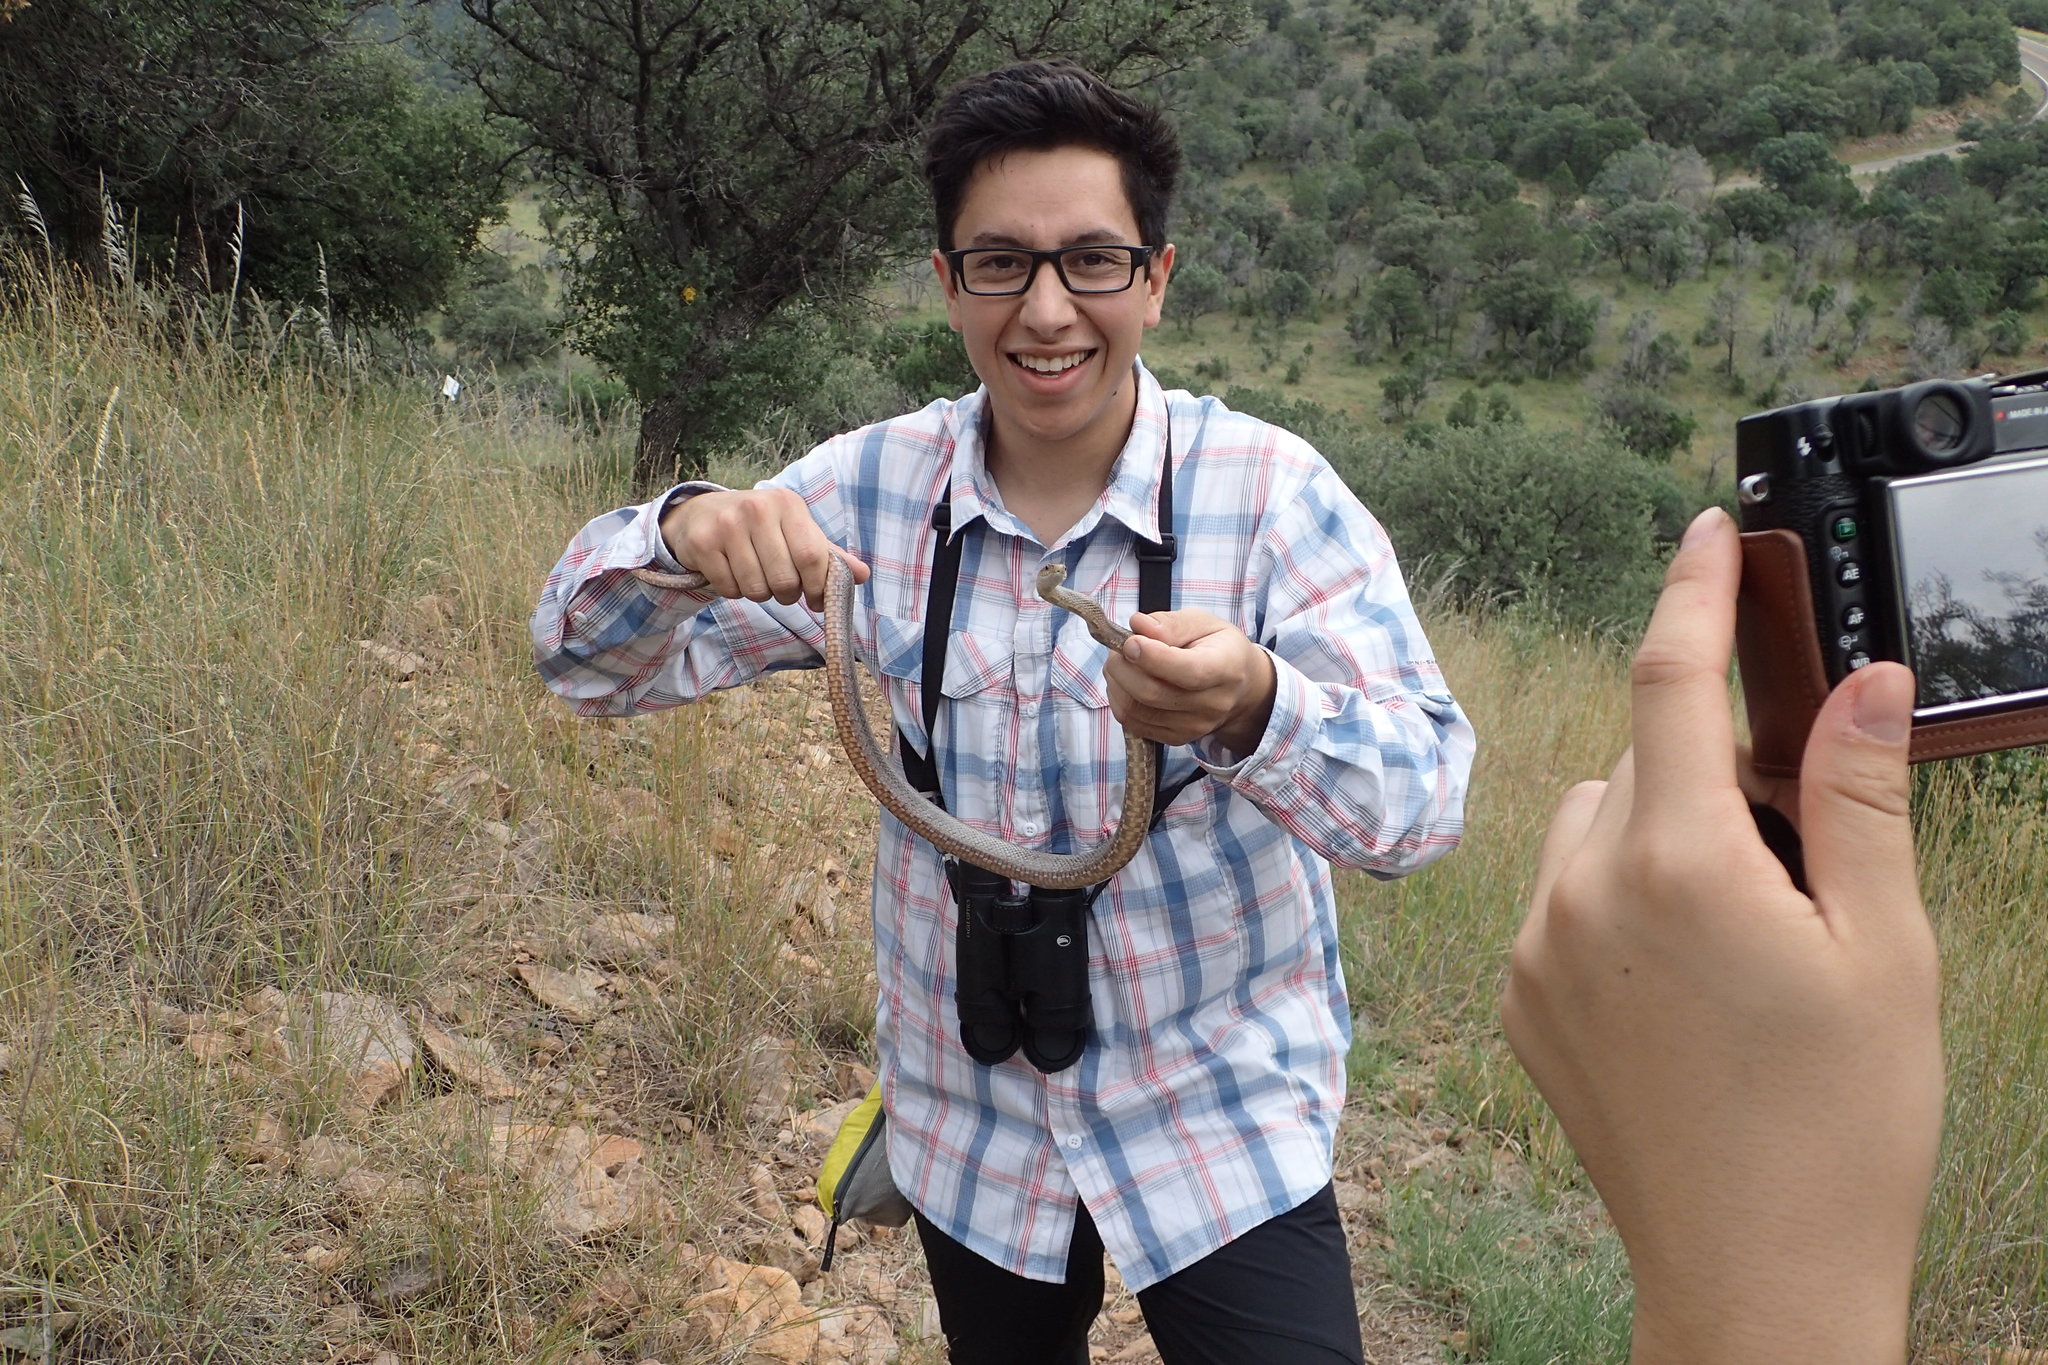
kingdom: Animalia
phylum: Chordata
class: Squamata
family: Colubridae
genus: Pantherophis
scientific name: Pantherophis bairdi
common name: Baird's rat snake
